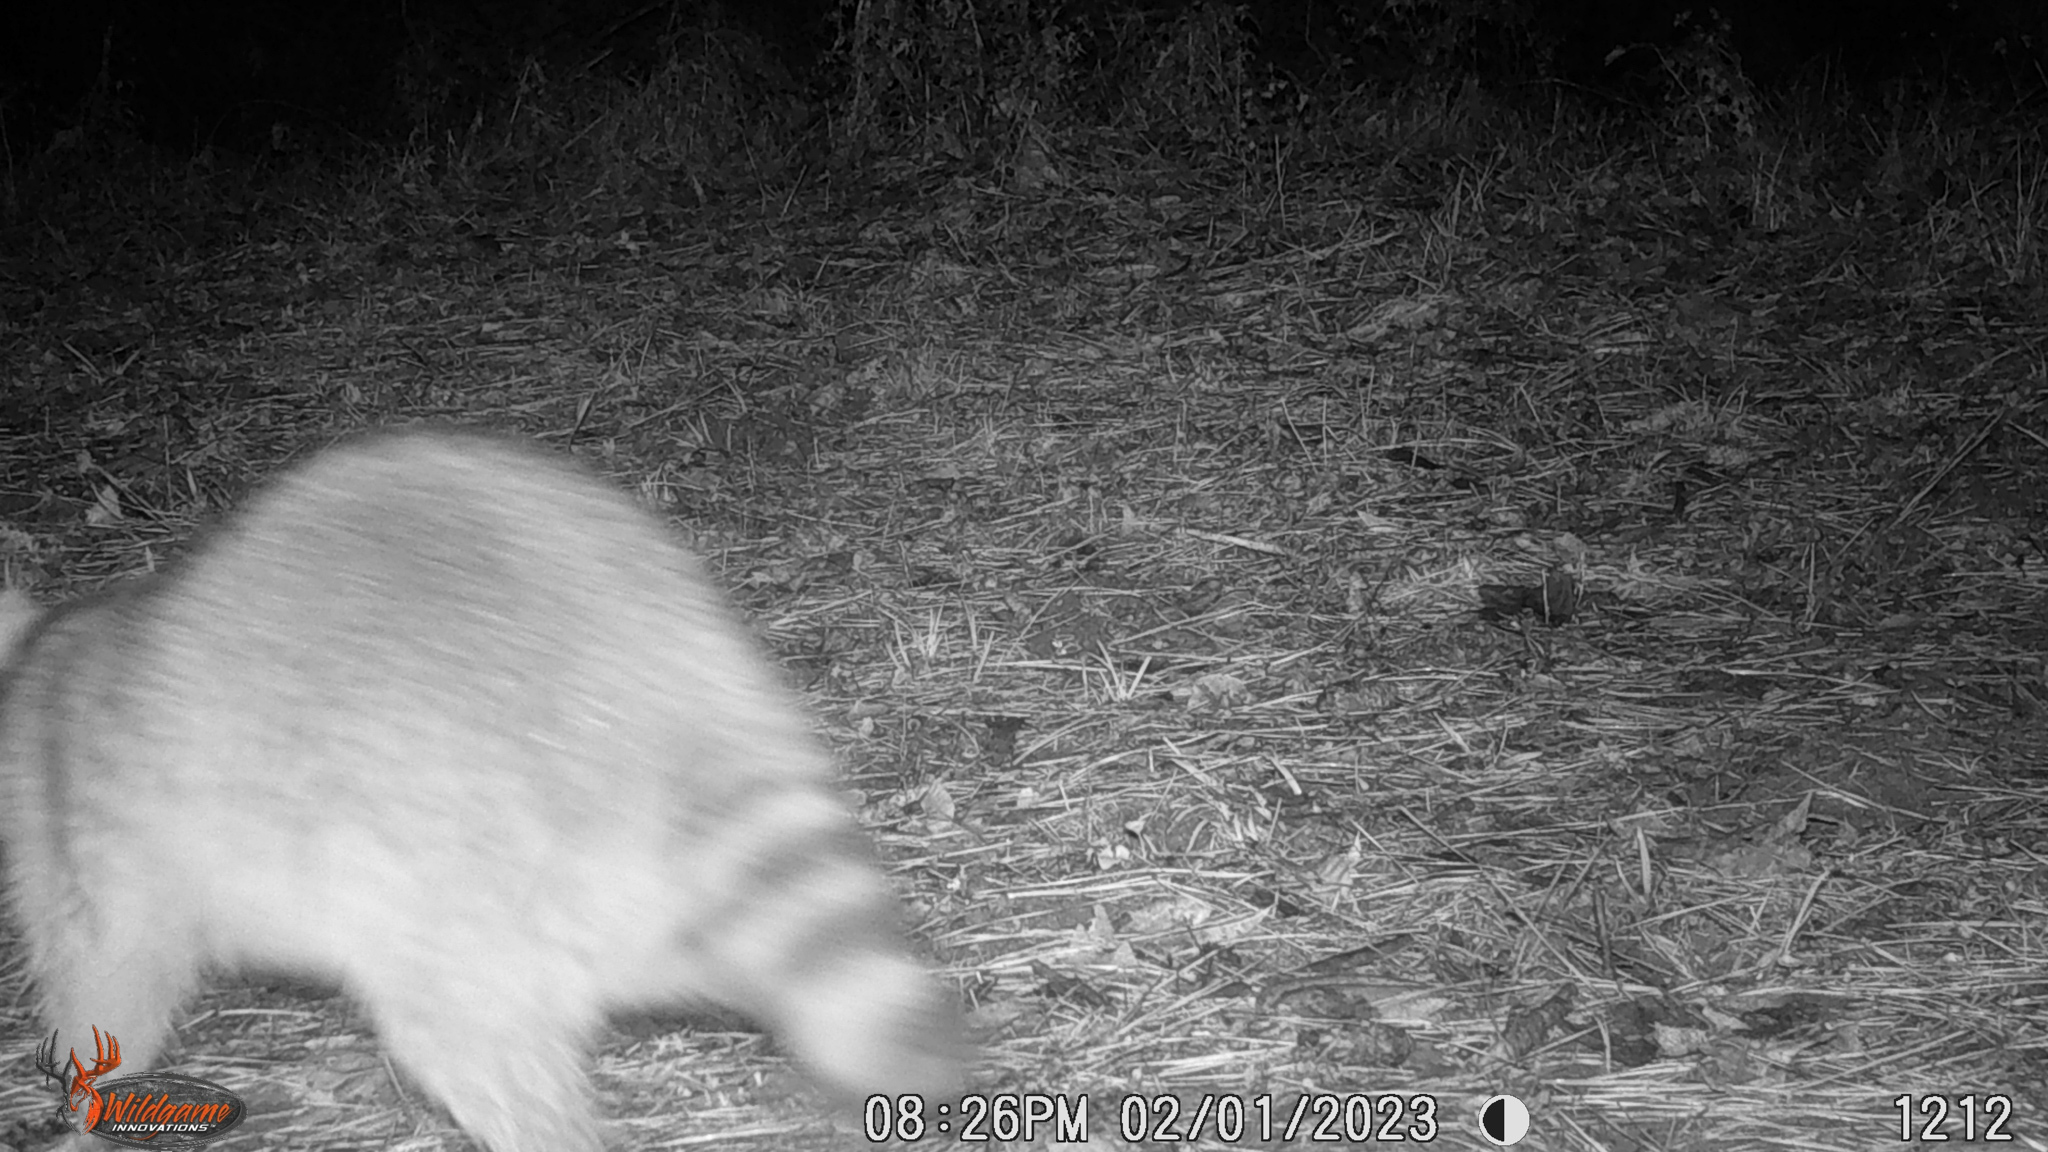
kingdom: Animalia
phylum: Chordata
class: Mammalia
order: Carnivora
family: Procyonidae
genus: Procyon
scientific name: Procyon lotor
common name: Raccoon
